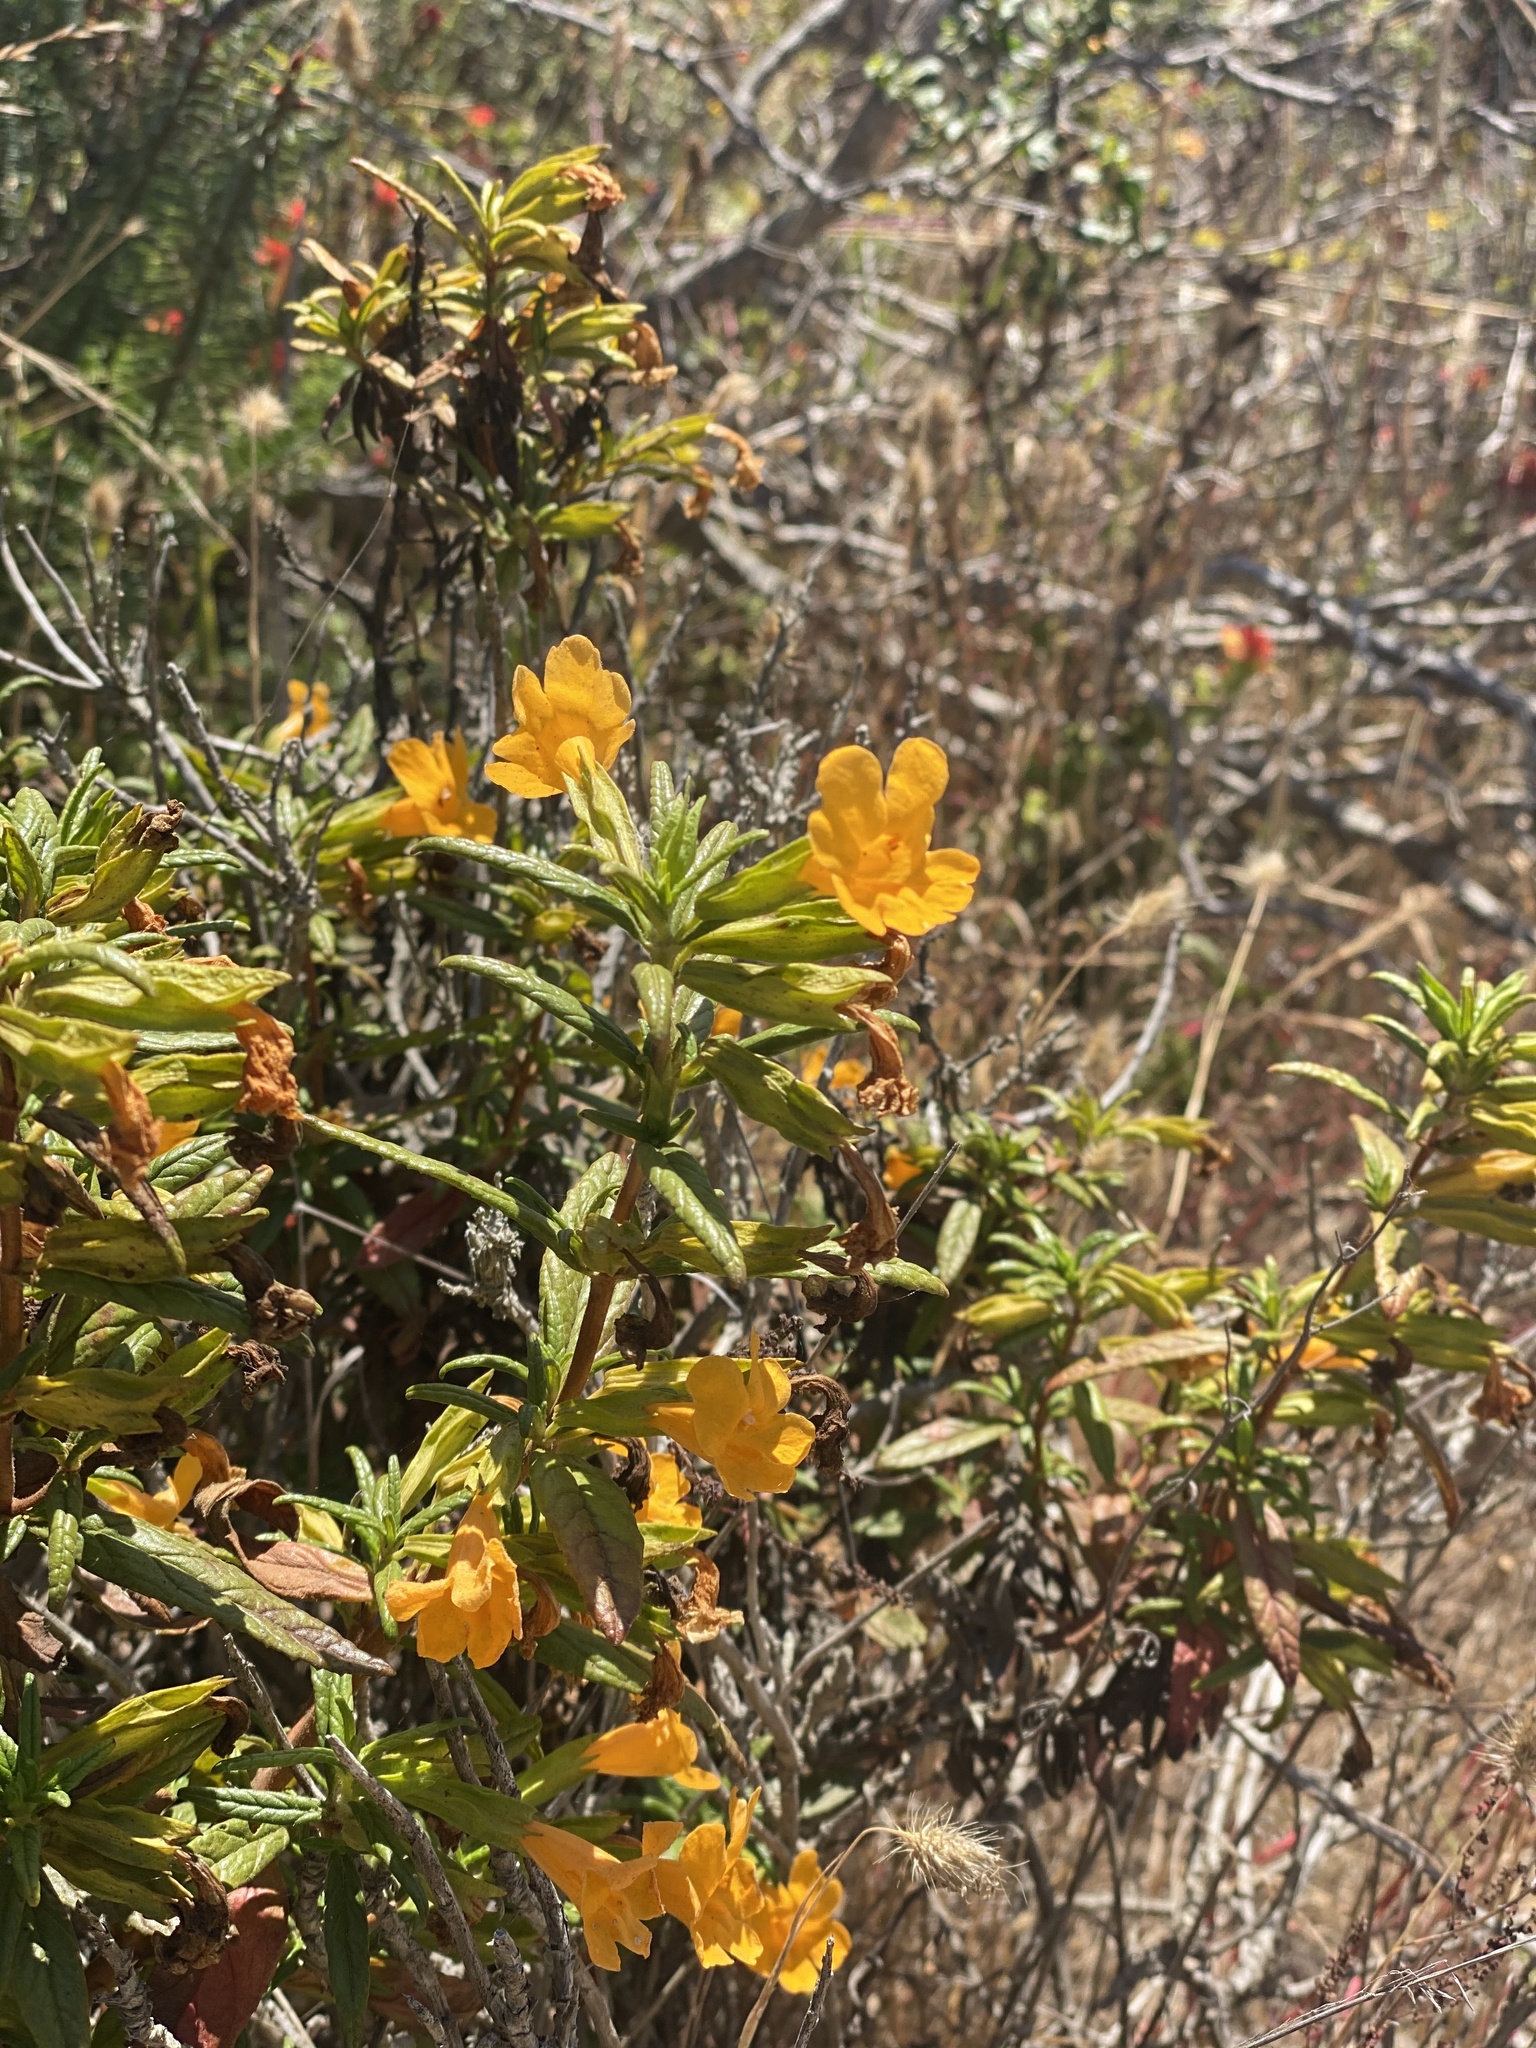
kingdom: Plantae
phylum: Tracheophyta
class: Magnoliopsida
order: Lamiales
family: Phrymaceae
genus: Diplacus
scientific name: Diplacus aurantiacus
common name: Bush monkey-flower
